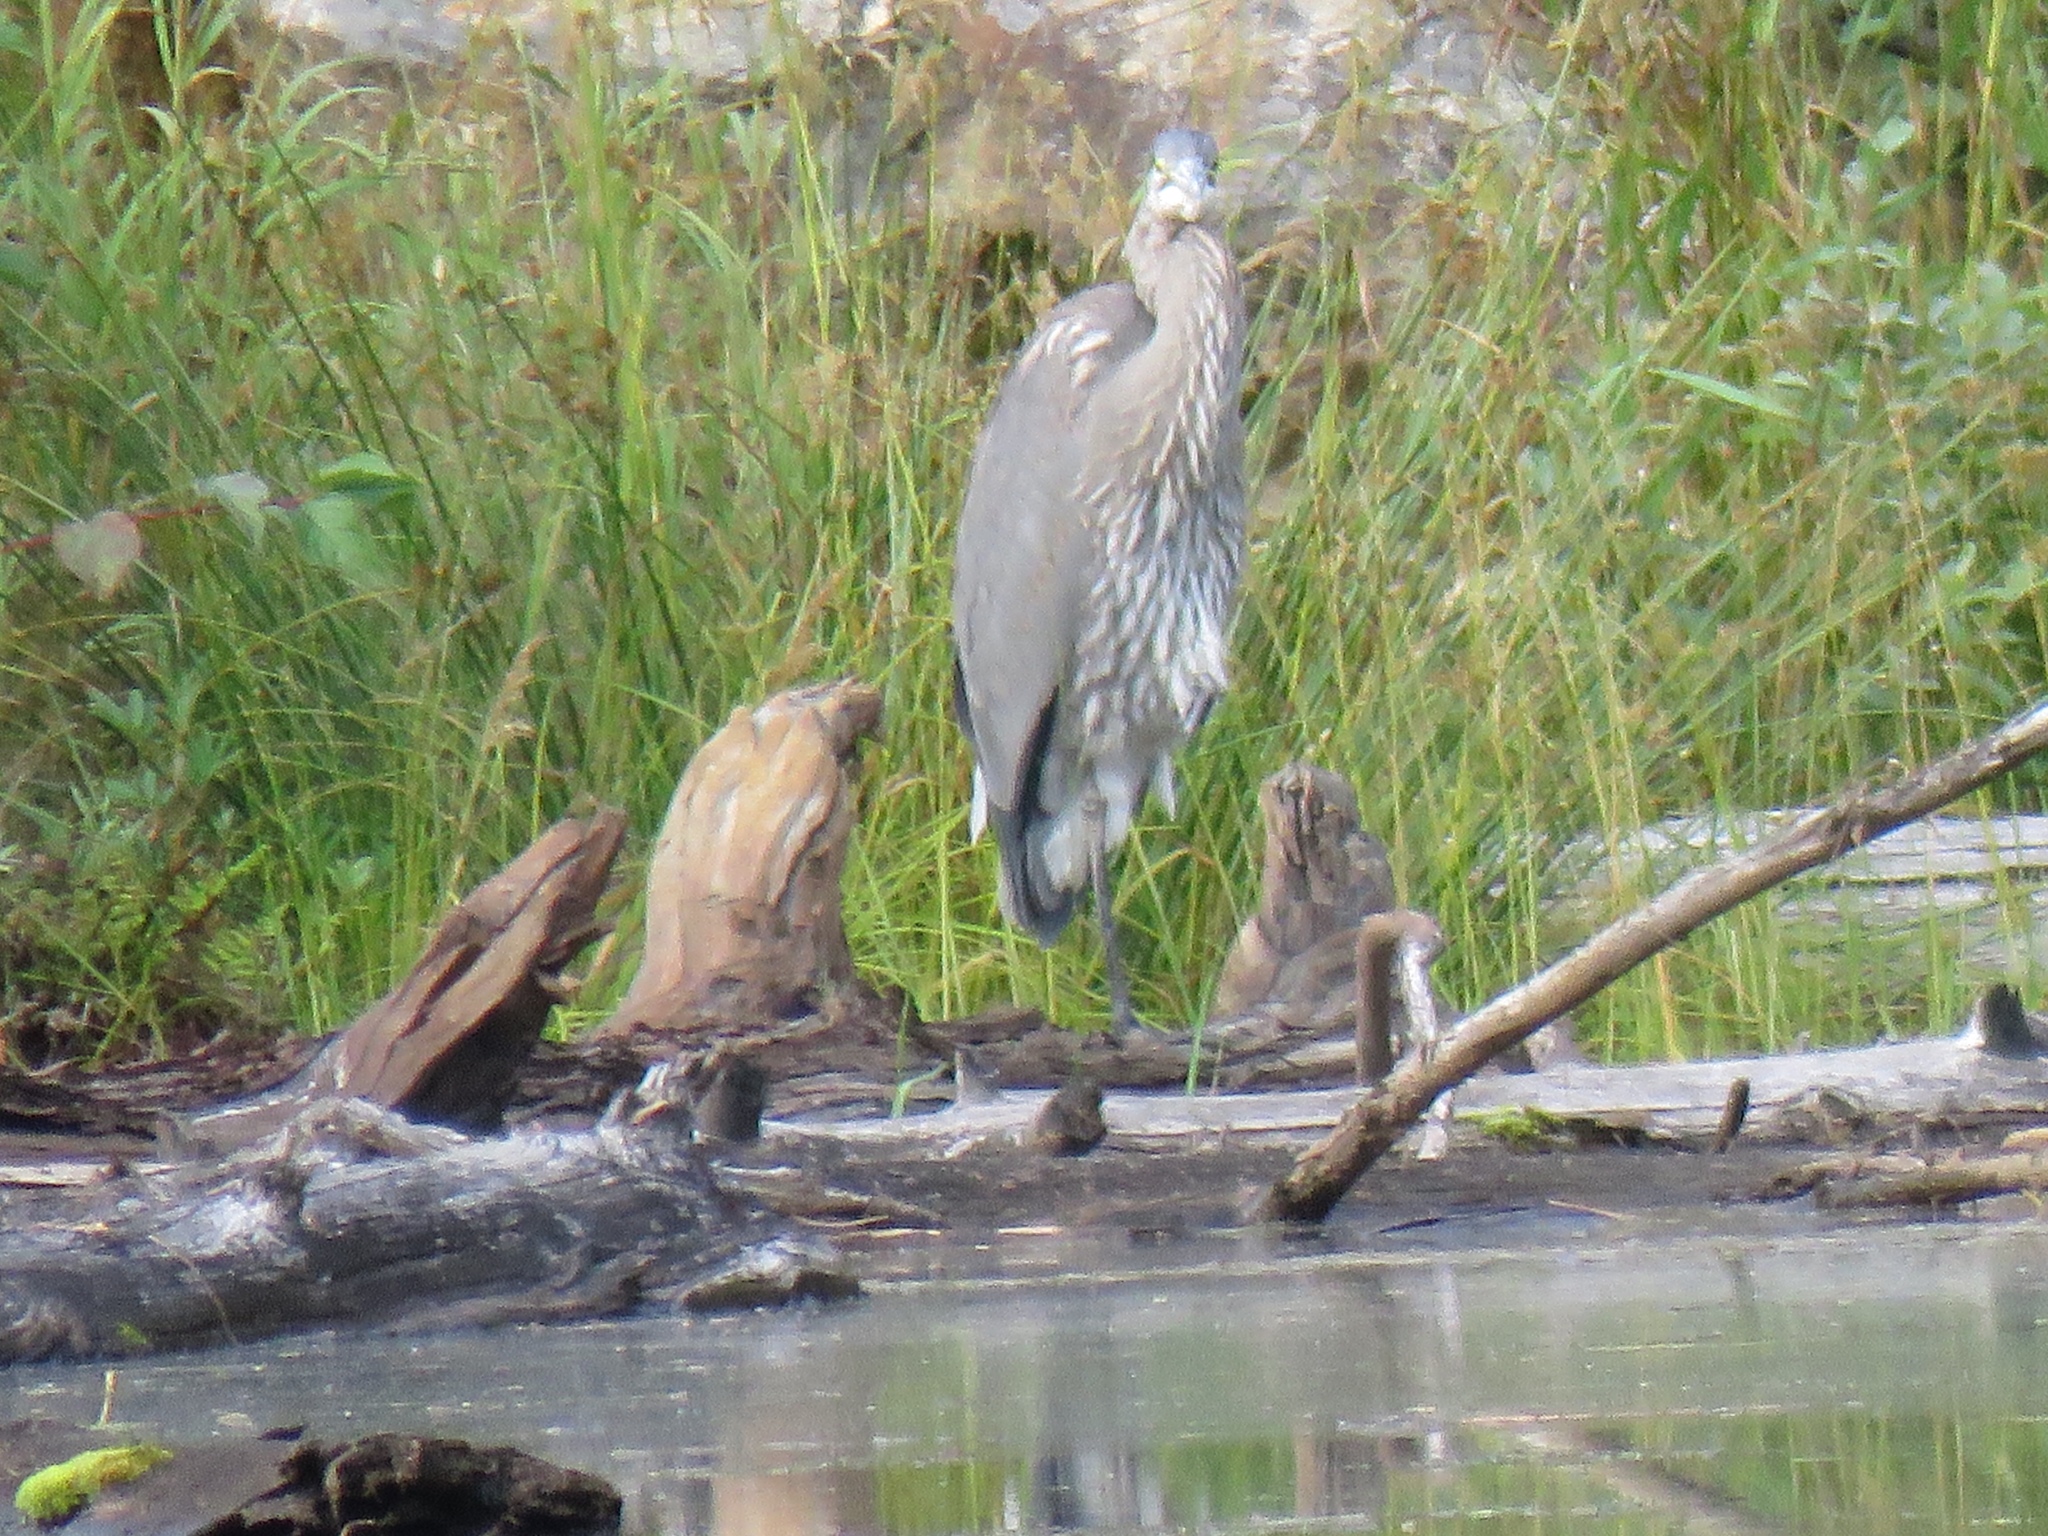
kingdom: Animalia
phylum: Chordata
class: Aves
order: Pelecaniformes
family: Ardeidae
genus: Ardea
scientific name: Ardea herodias
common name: Great blue heron
